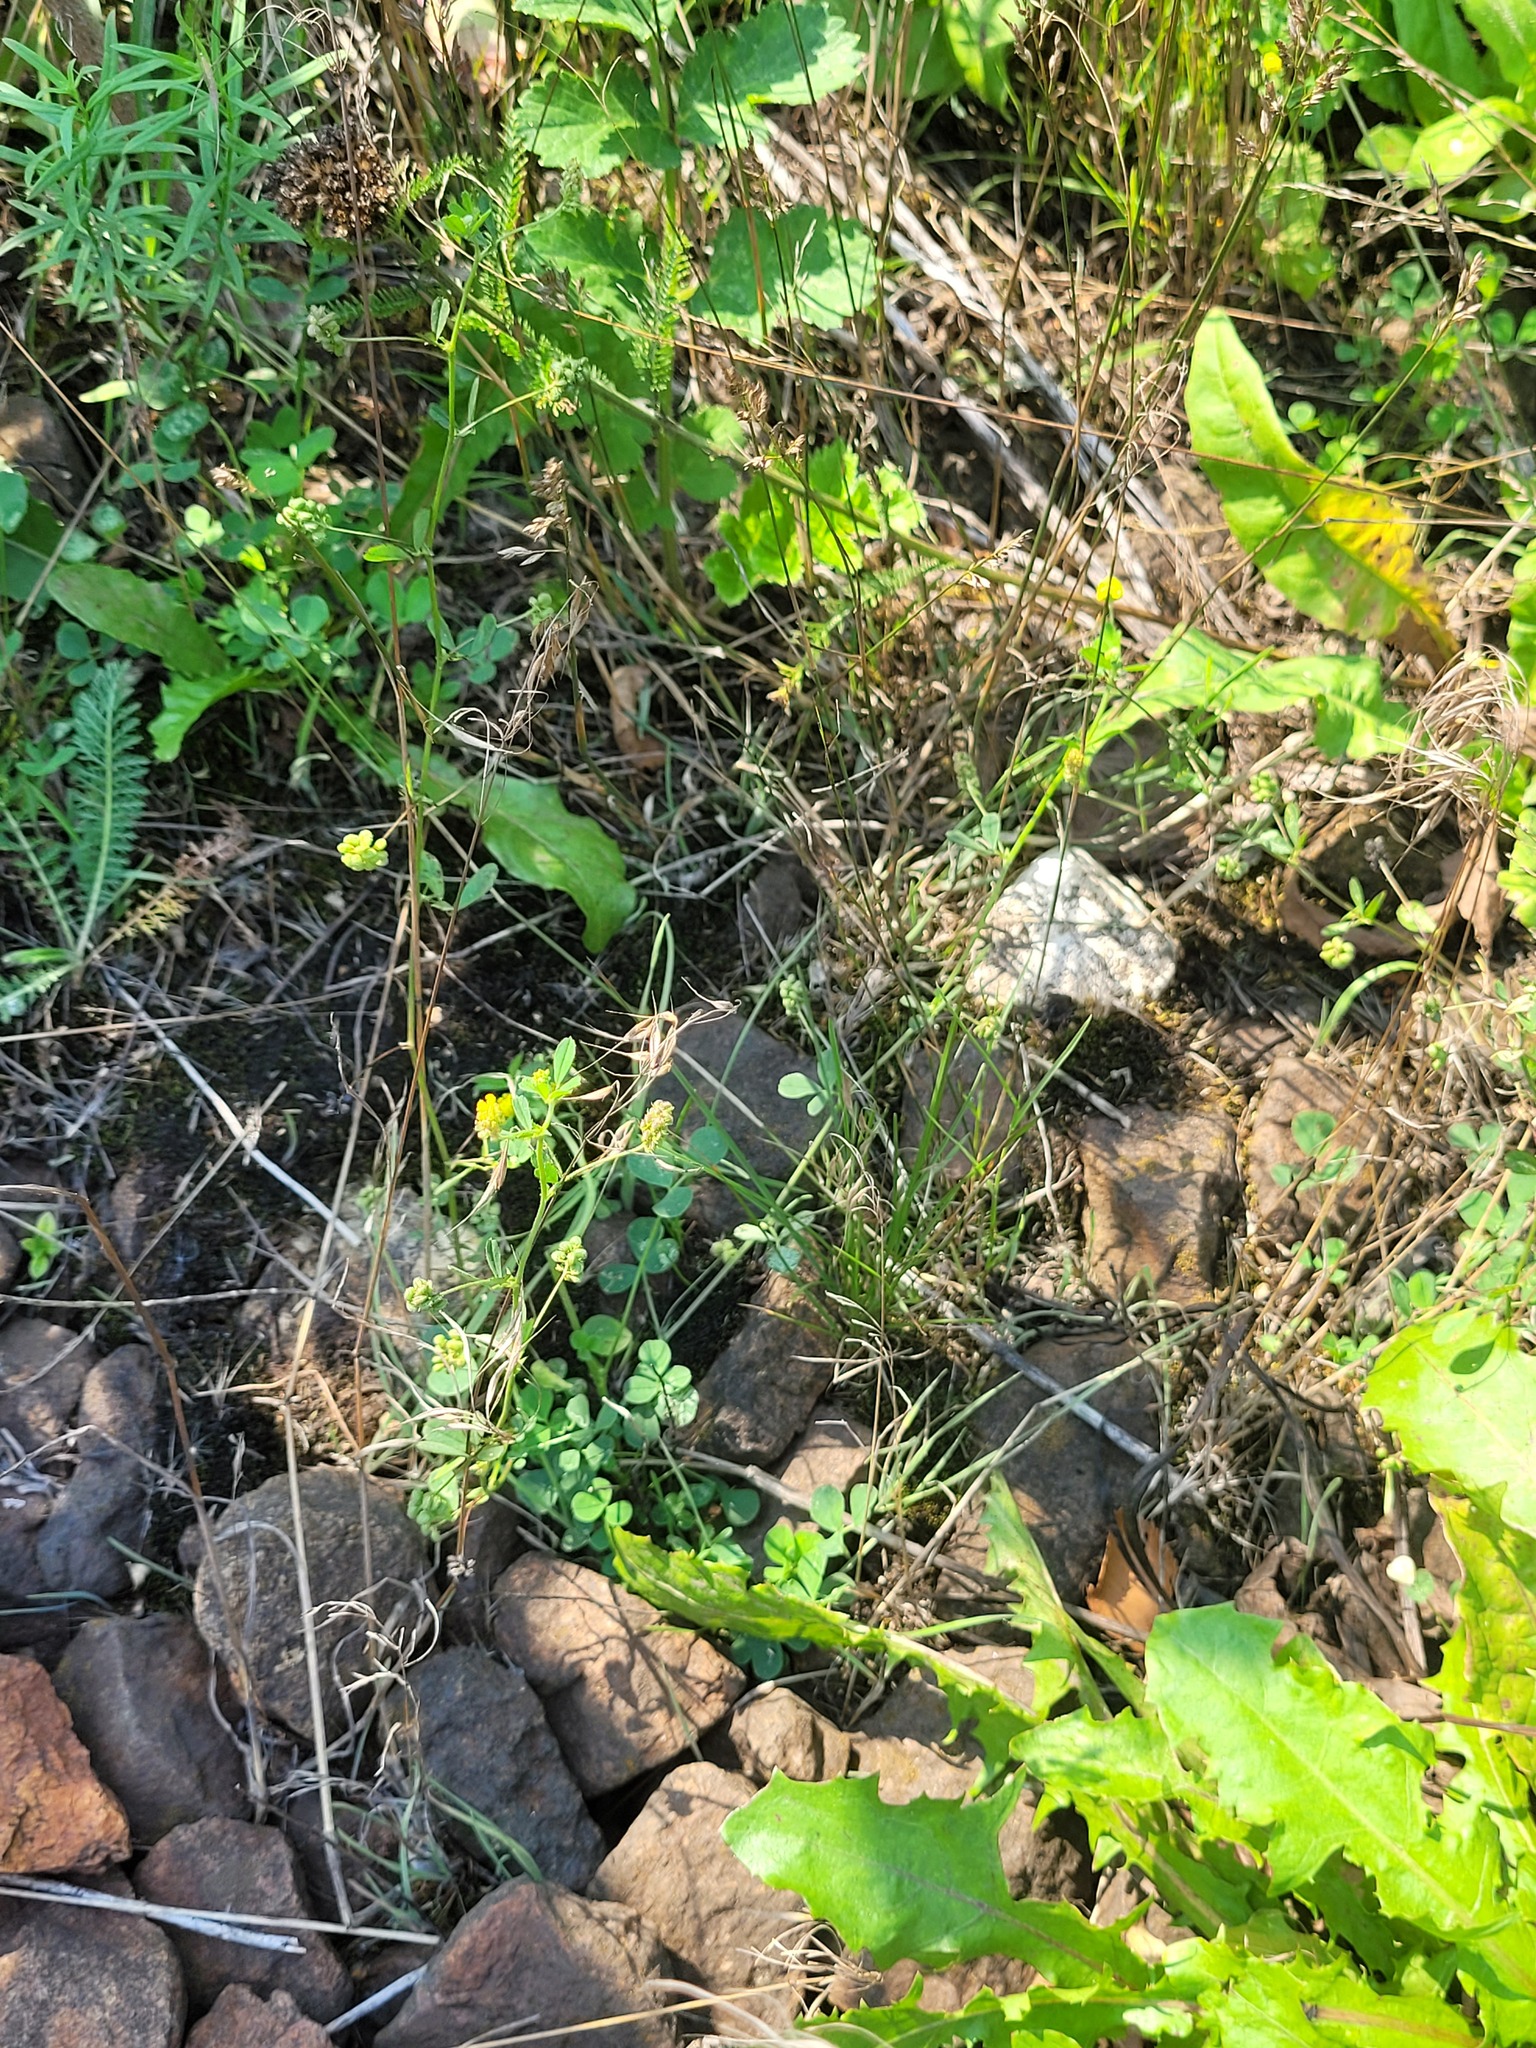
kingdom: Plantae
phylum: Tracheophyta
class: Magnoliopsida
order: Fabales
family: Fabaceae
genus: Medicago
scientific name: Medicago lupulina
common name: Black medick
